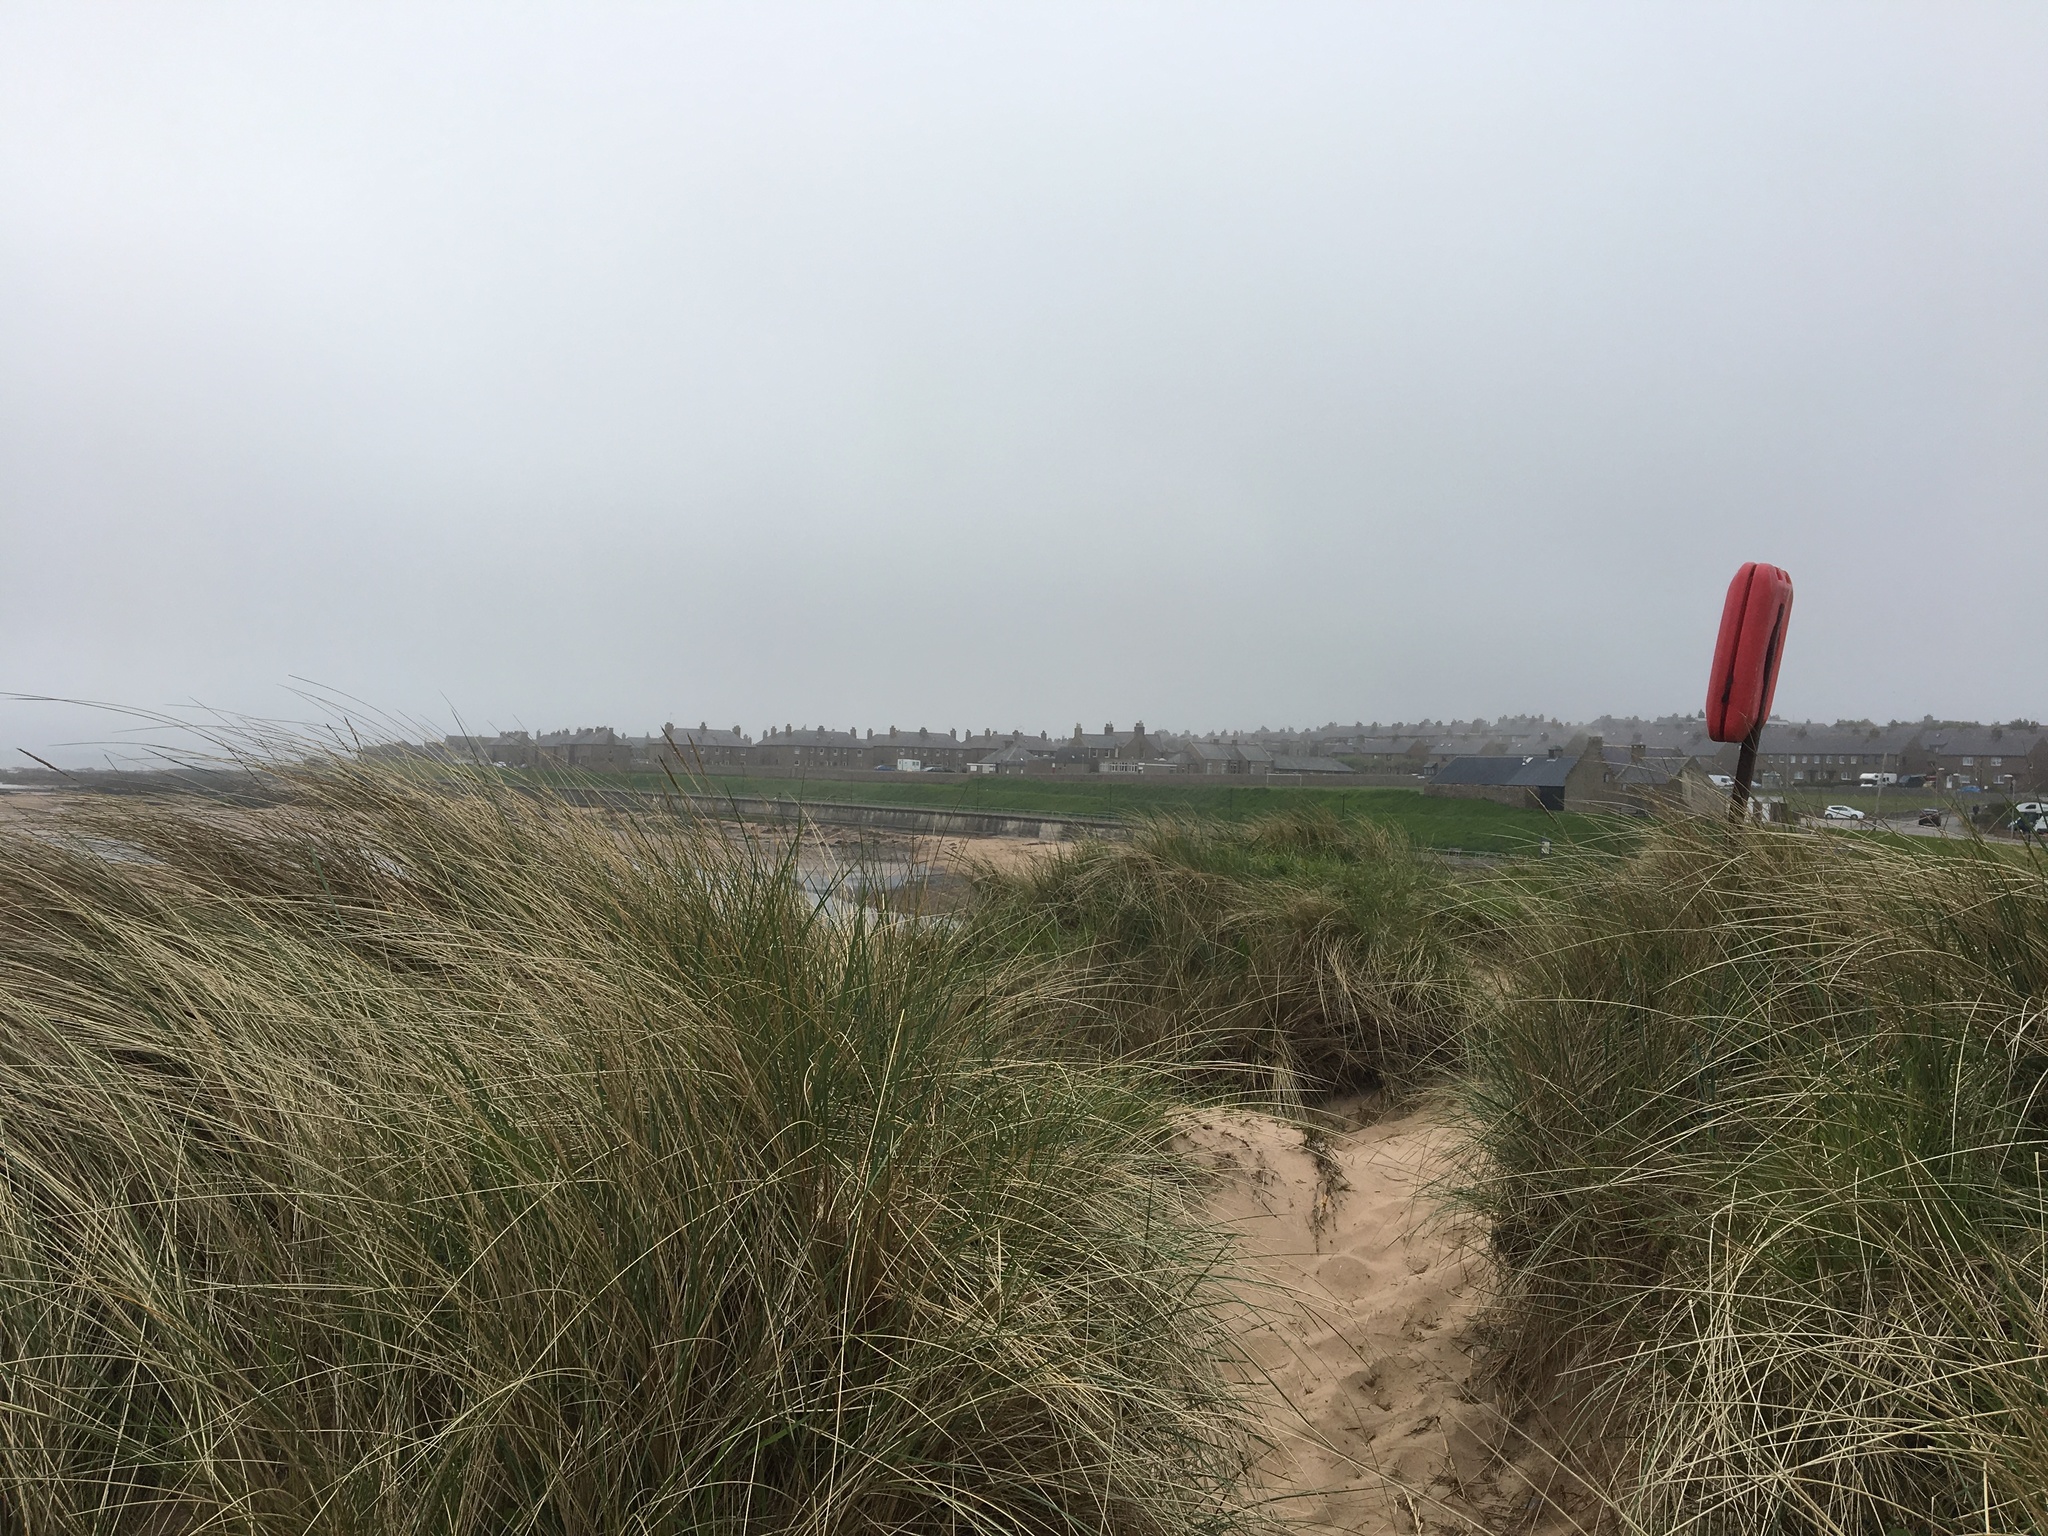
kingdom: Plantae
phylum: Tracheophyta
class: Liliopsida
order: Poales
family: Poaceae
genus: Calamagrostis
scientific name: Calamagrostis arenaria
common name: European beachgrass
